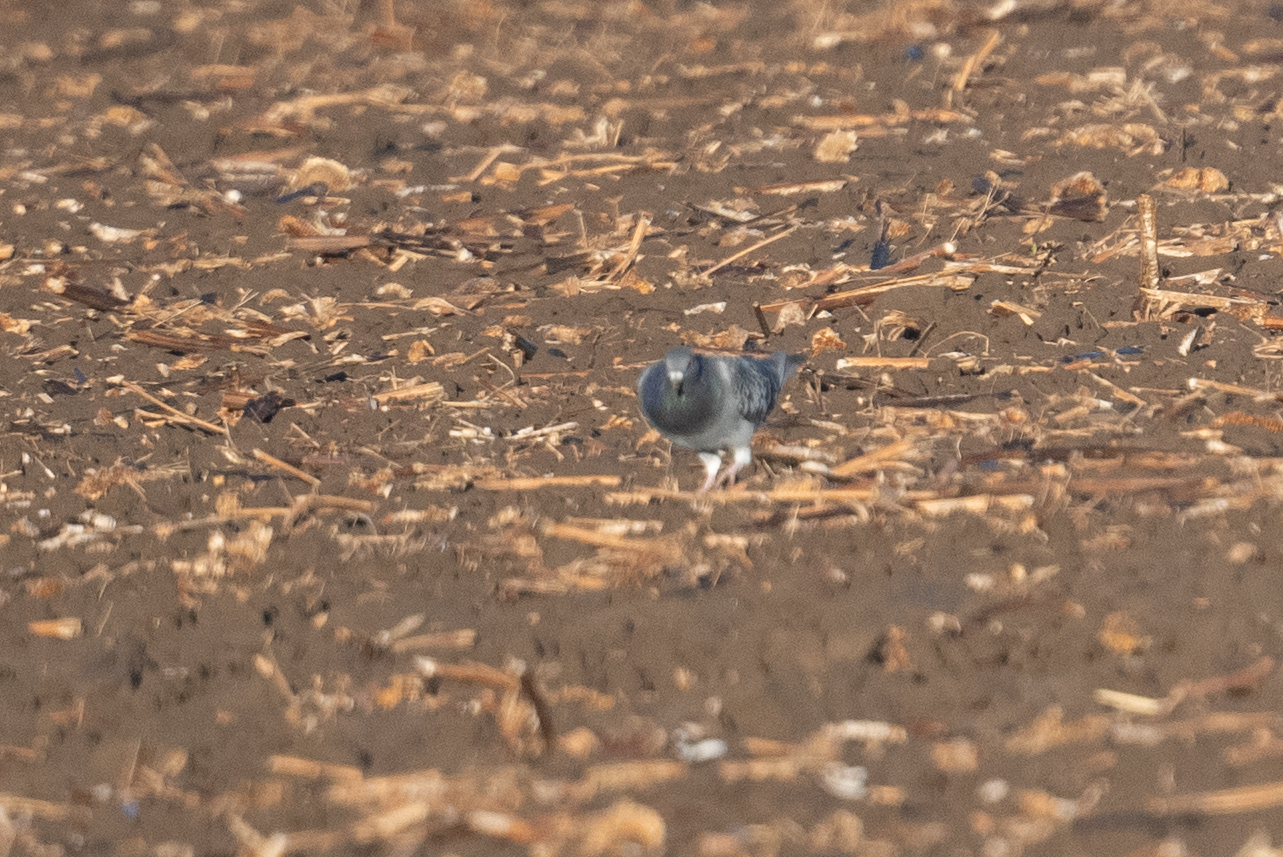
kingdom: Animalia
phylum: Chordata
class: Aves
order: Columbiformes
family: Columbidae
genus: Columba
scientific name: Columba livia
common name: Rock pigeon
